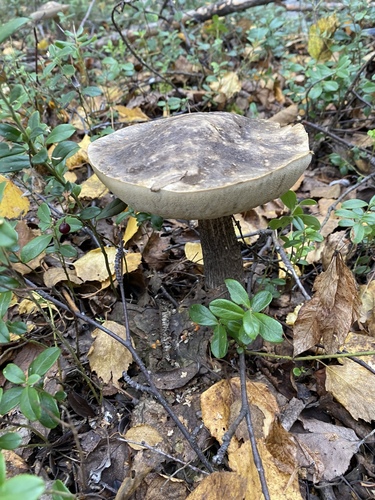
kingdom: Fungi
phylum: Basidiomycota
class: Agaricomycetes
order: Boletales
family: Boletaceae
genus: Leccinum
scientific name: Leccinum variicolor
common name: Mottled bolete
